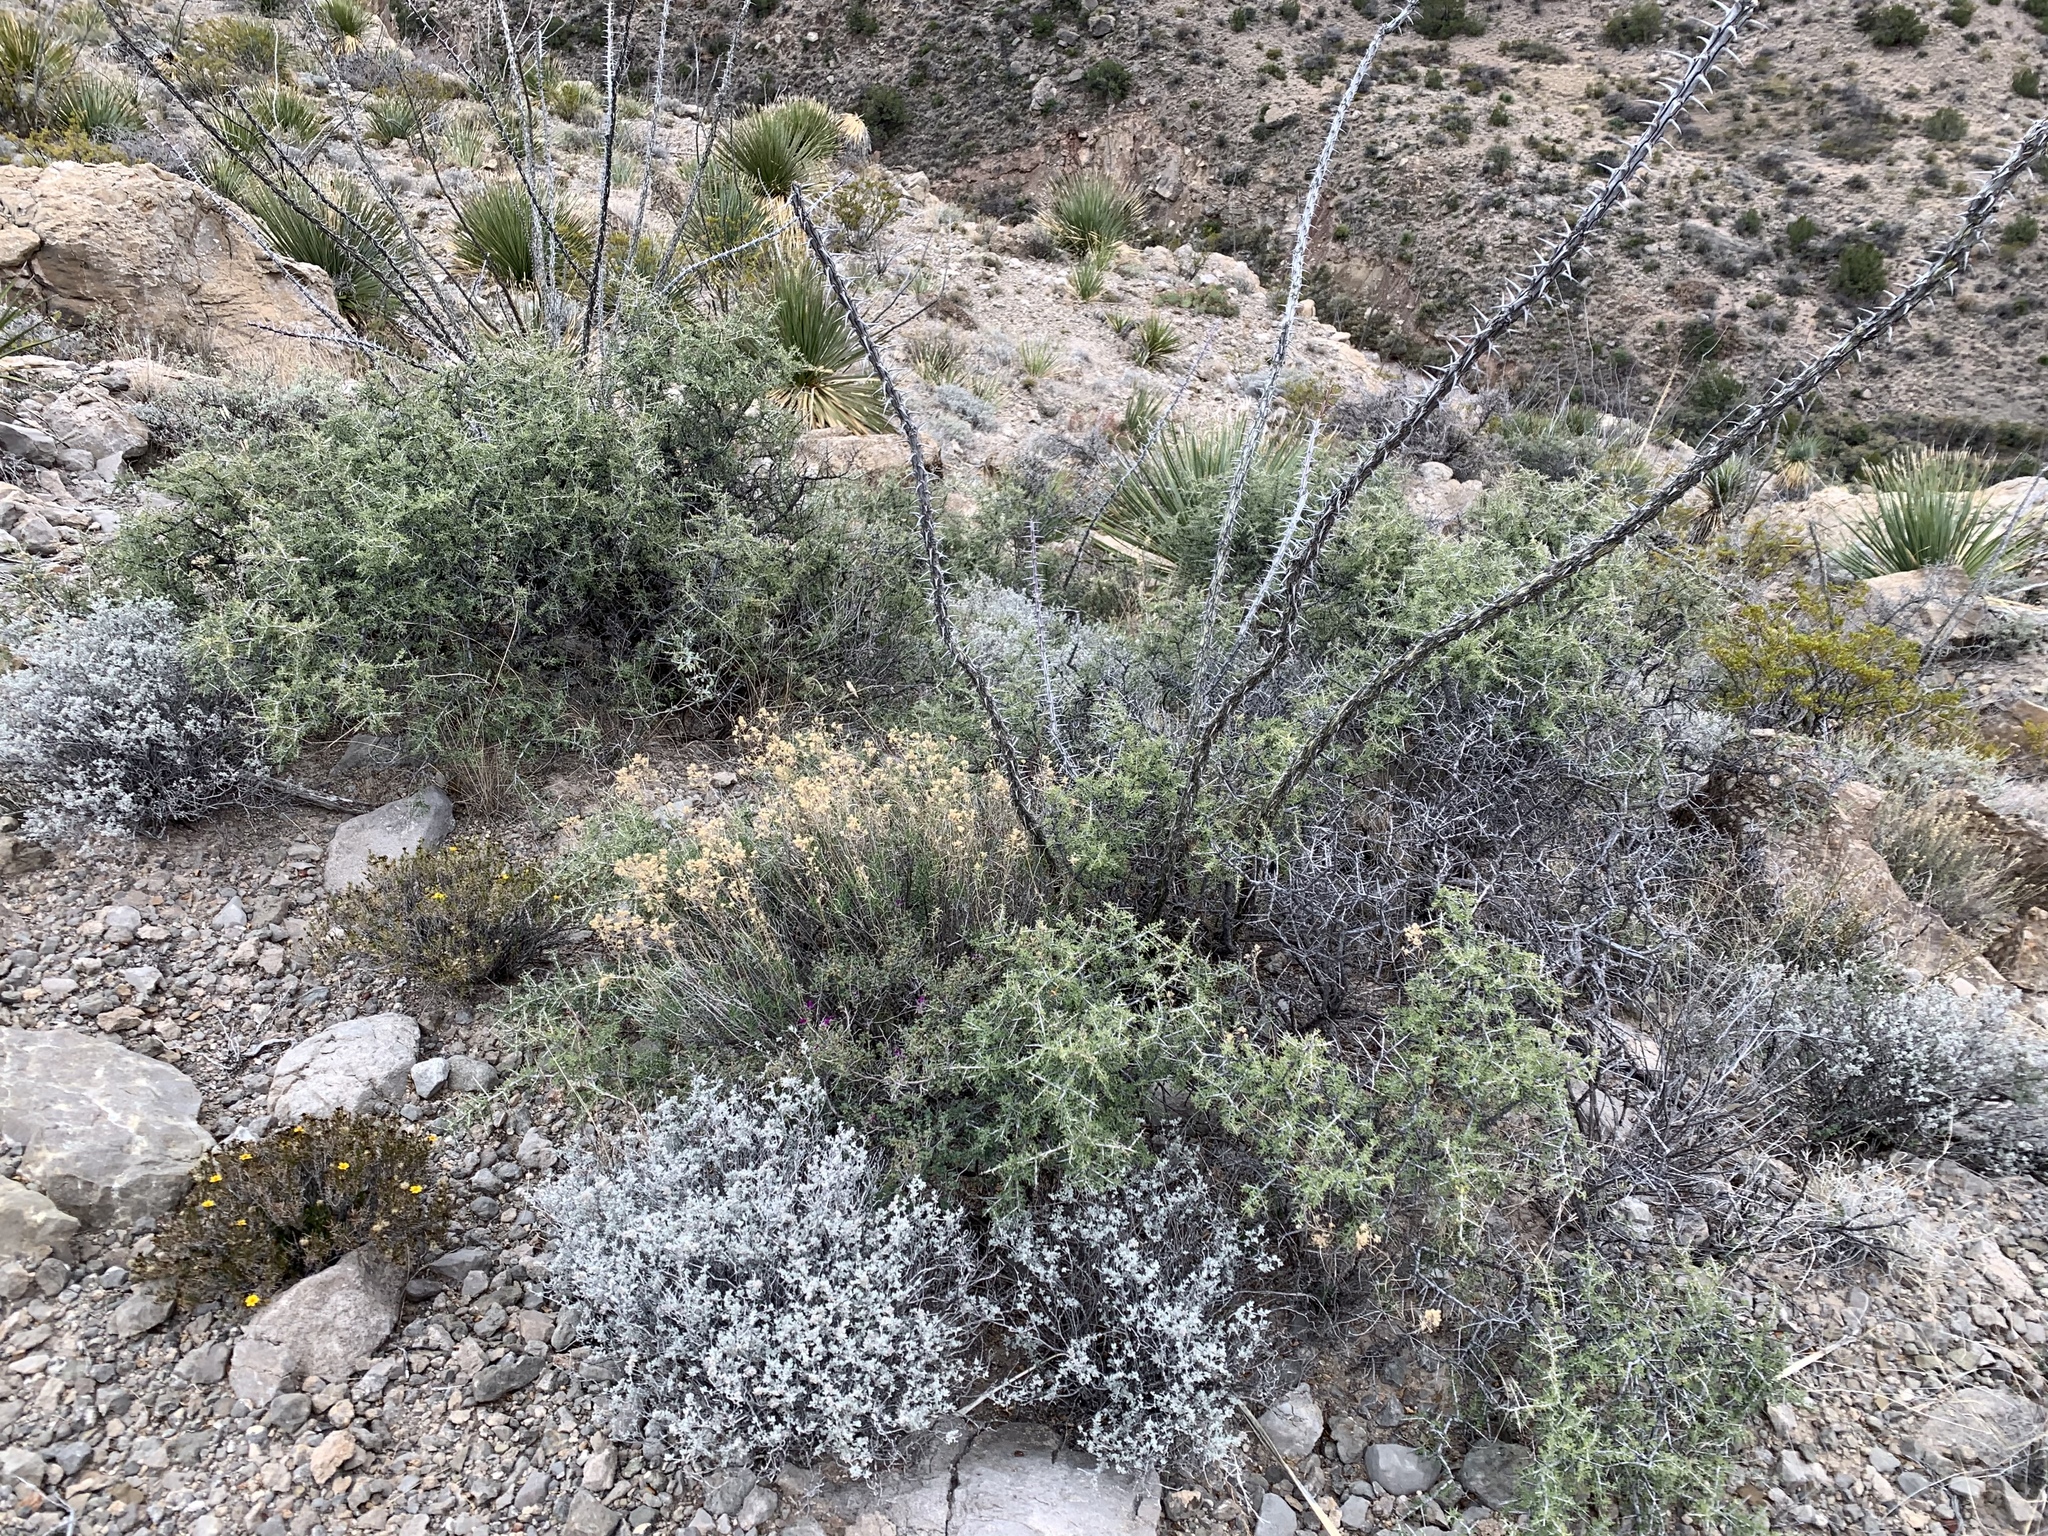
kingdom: Plantae
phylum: Tracheophyta
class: Magnoliopsida
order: Rosales
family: Rhamnaceae
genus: Condalia
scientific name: Condalia warnockii
